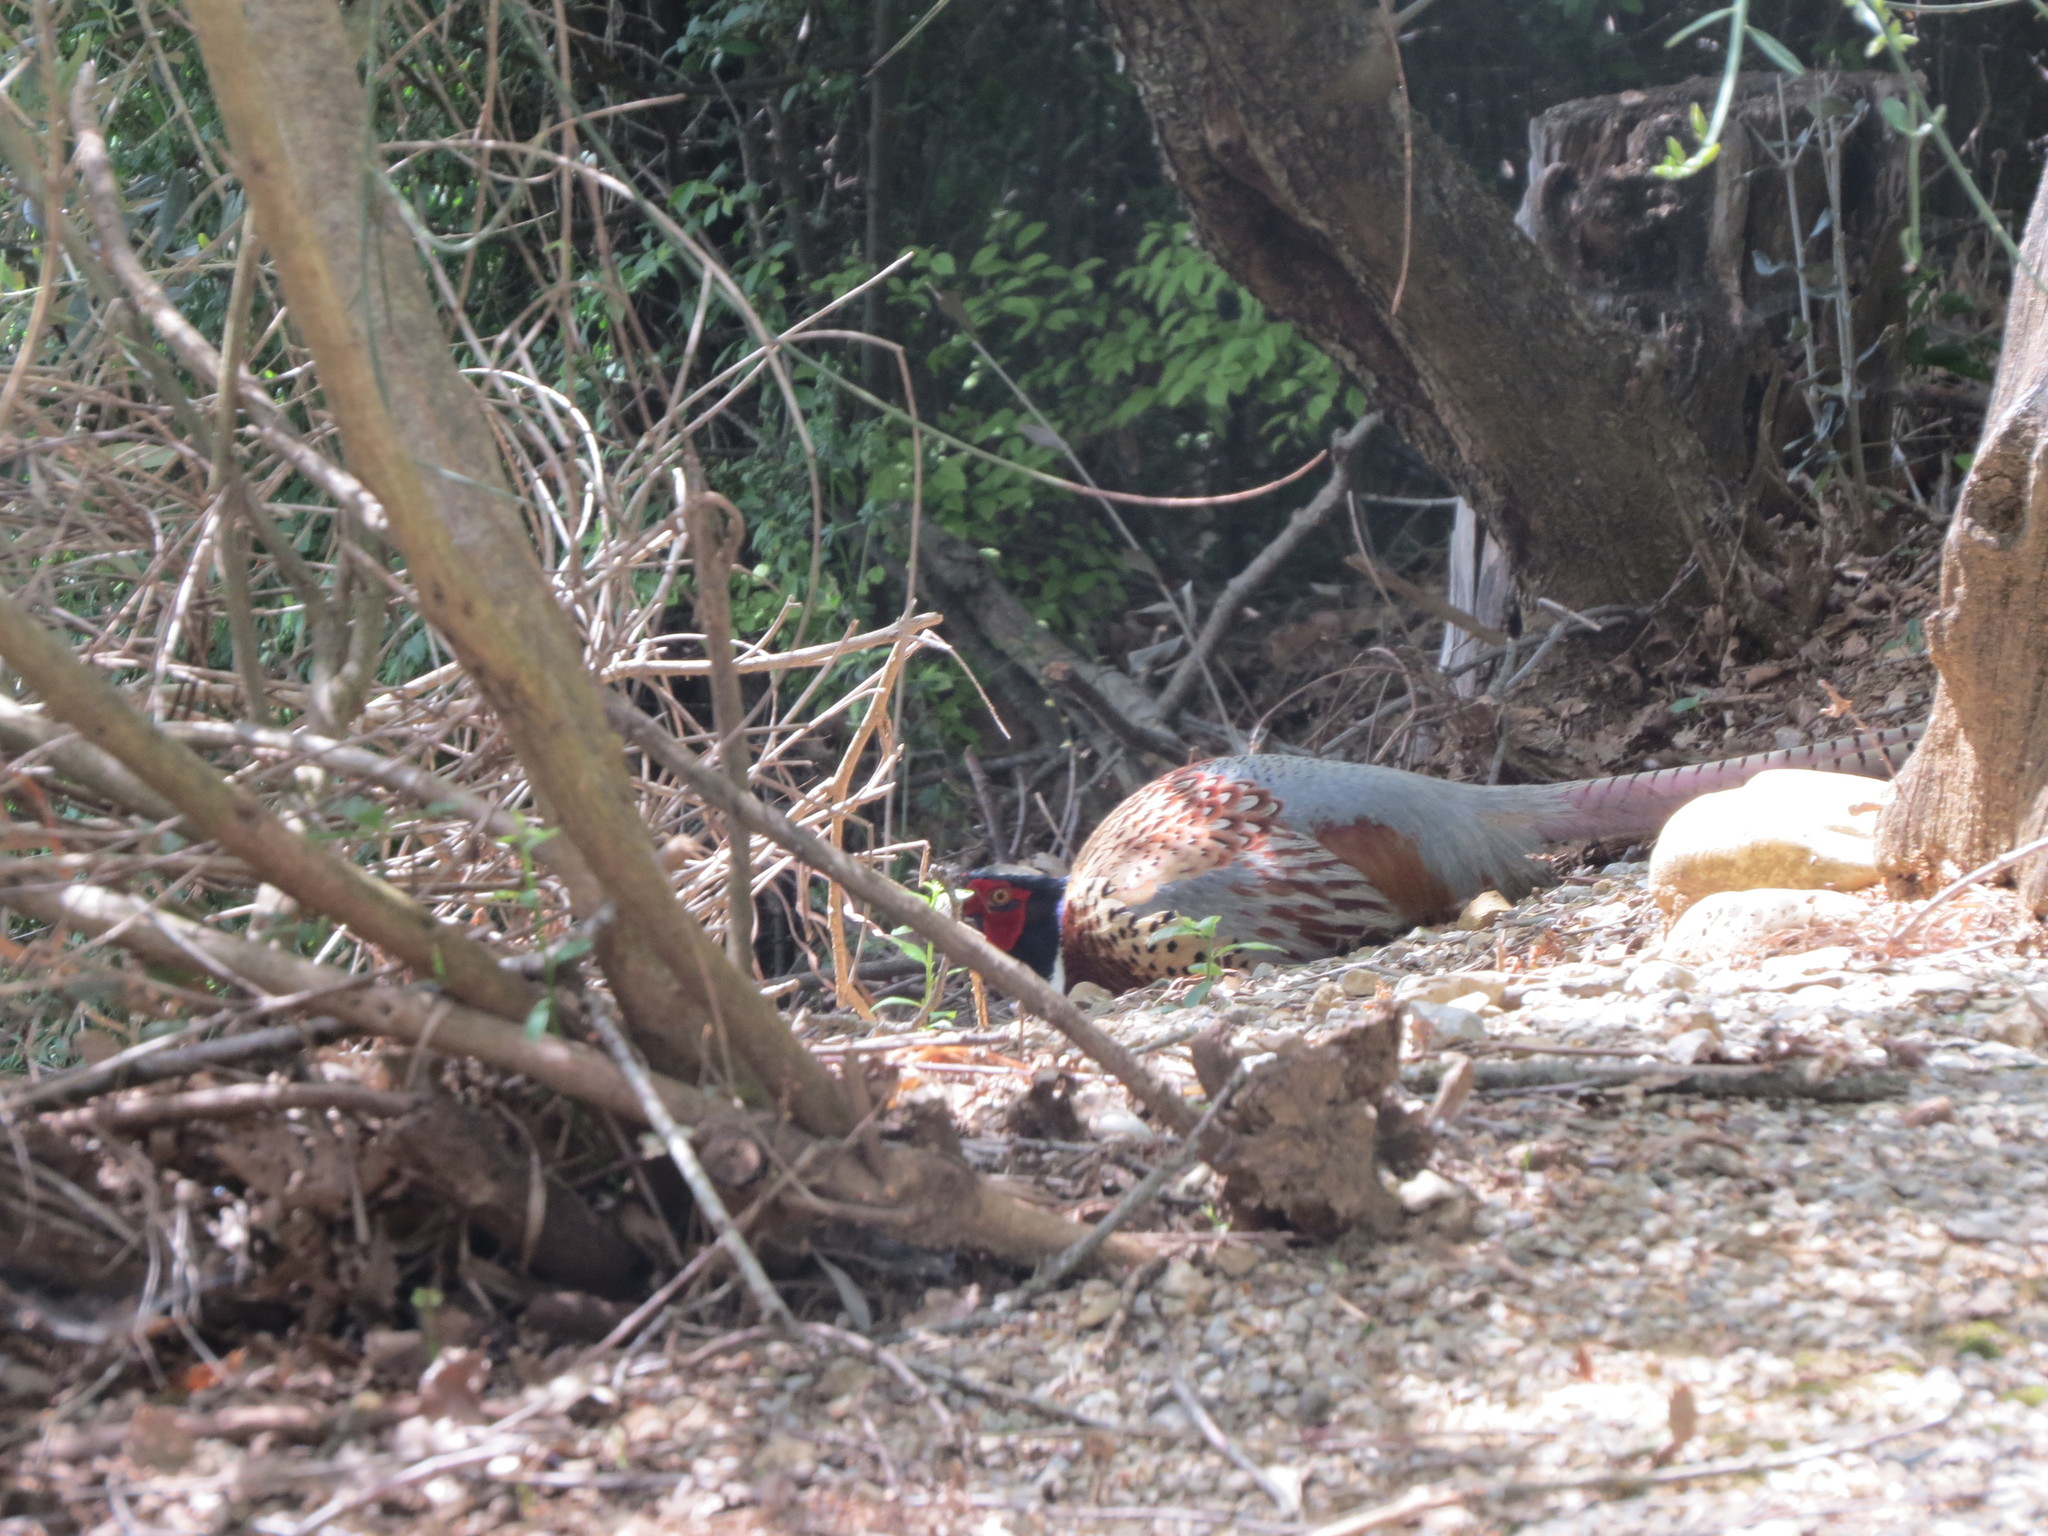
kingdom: Animalia
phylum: Chordata
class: Aves
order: Galliformes
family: Phasianidae
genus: Phasianus
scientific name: Phasianus colchicus
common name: Common pheasant
